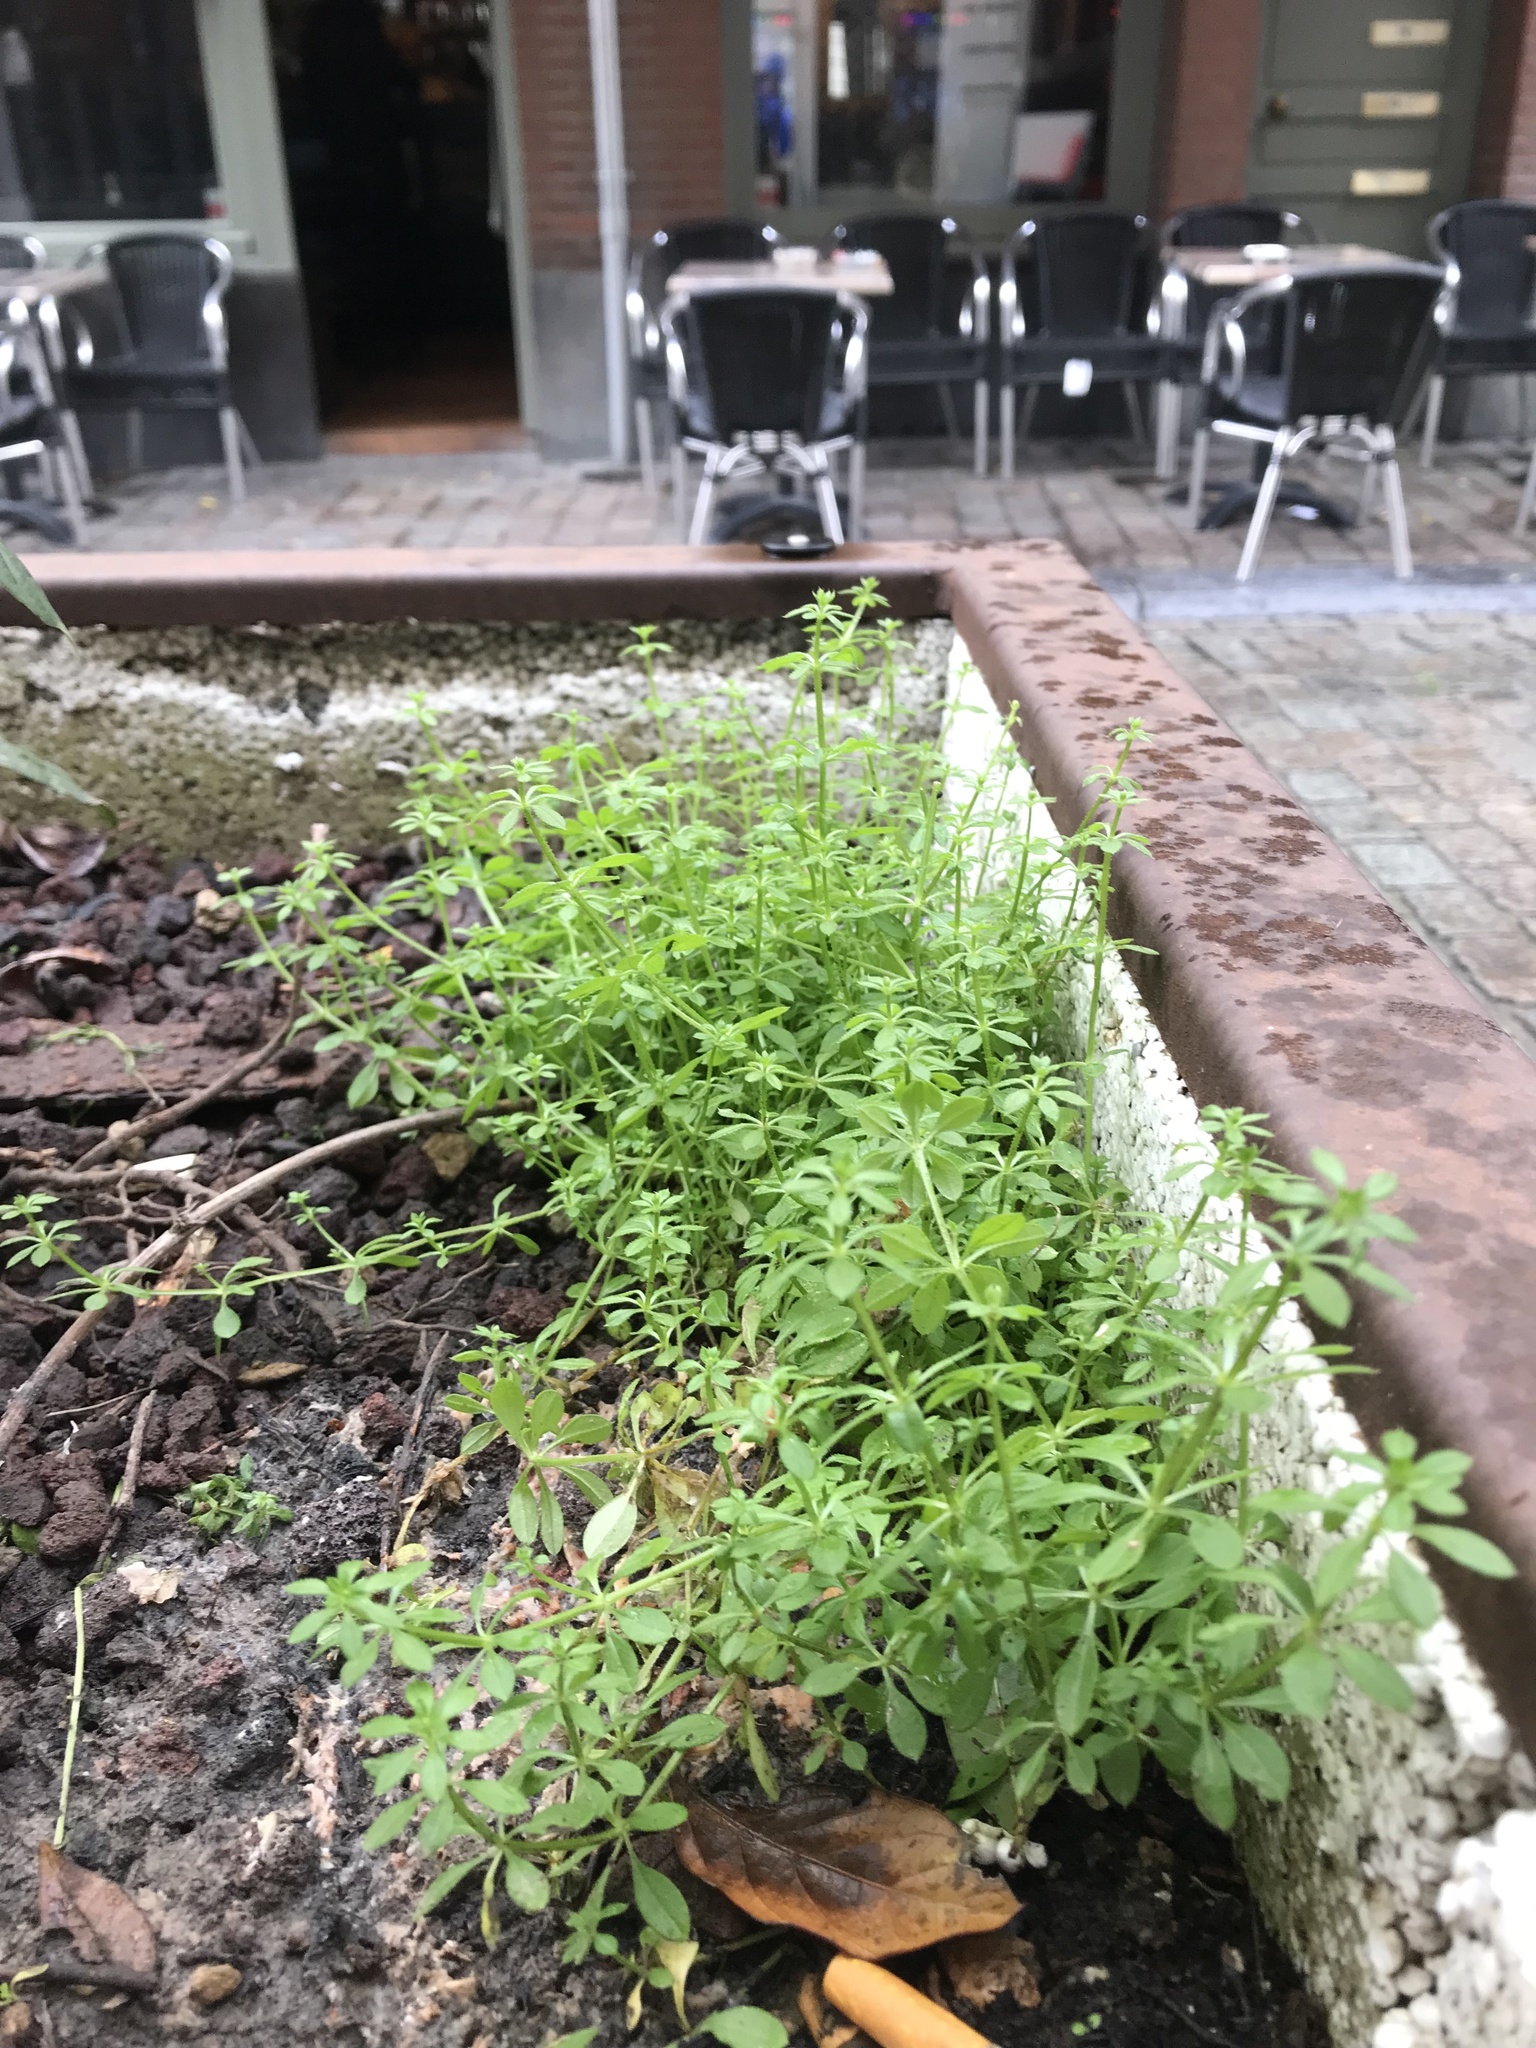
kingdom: Plantae
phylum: Tracheophyta
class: Magnoliopsida
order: Gentianales
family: Rubiaceae
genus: Galium
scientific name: Galium aparine
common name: Cleavers
